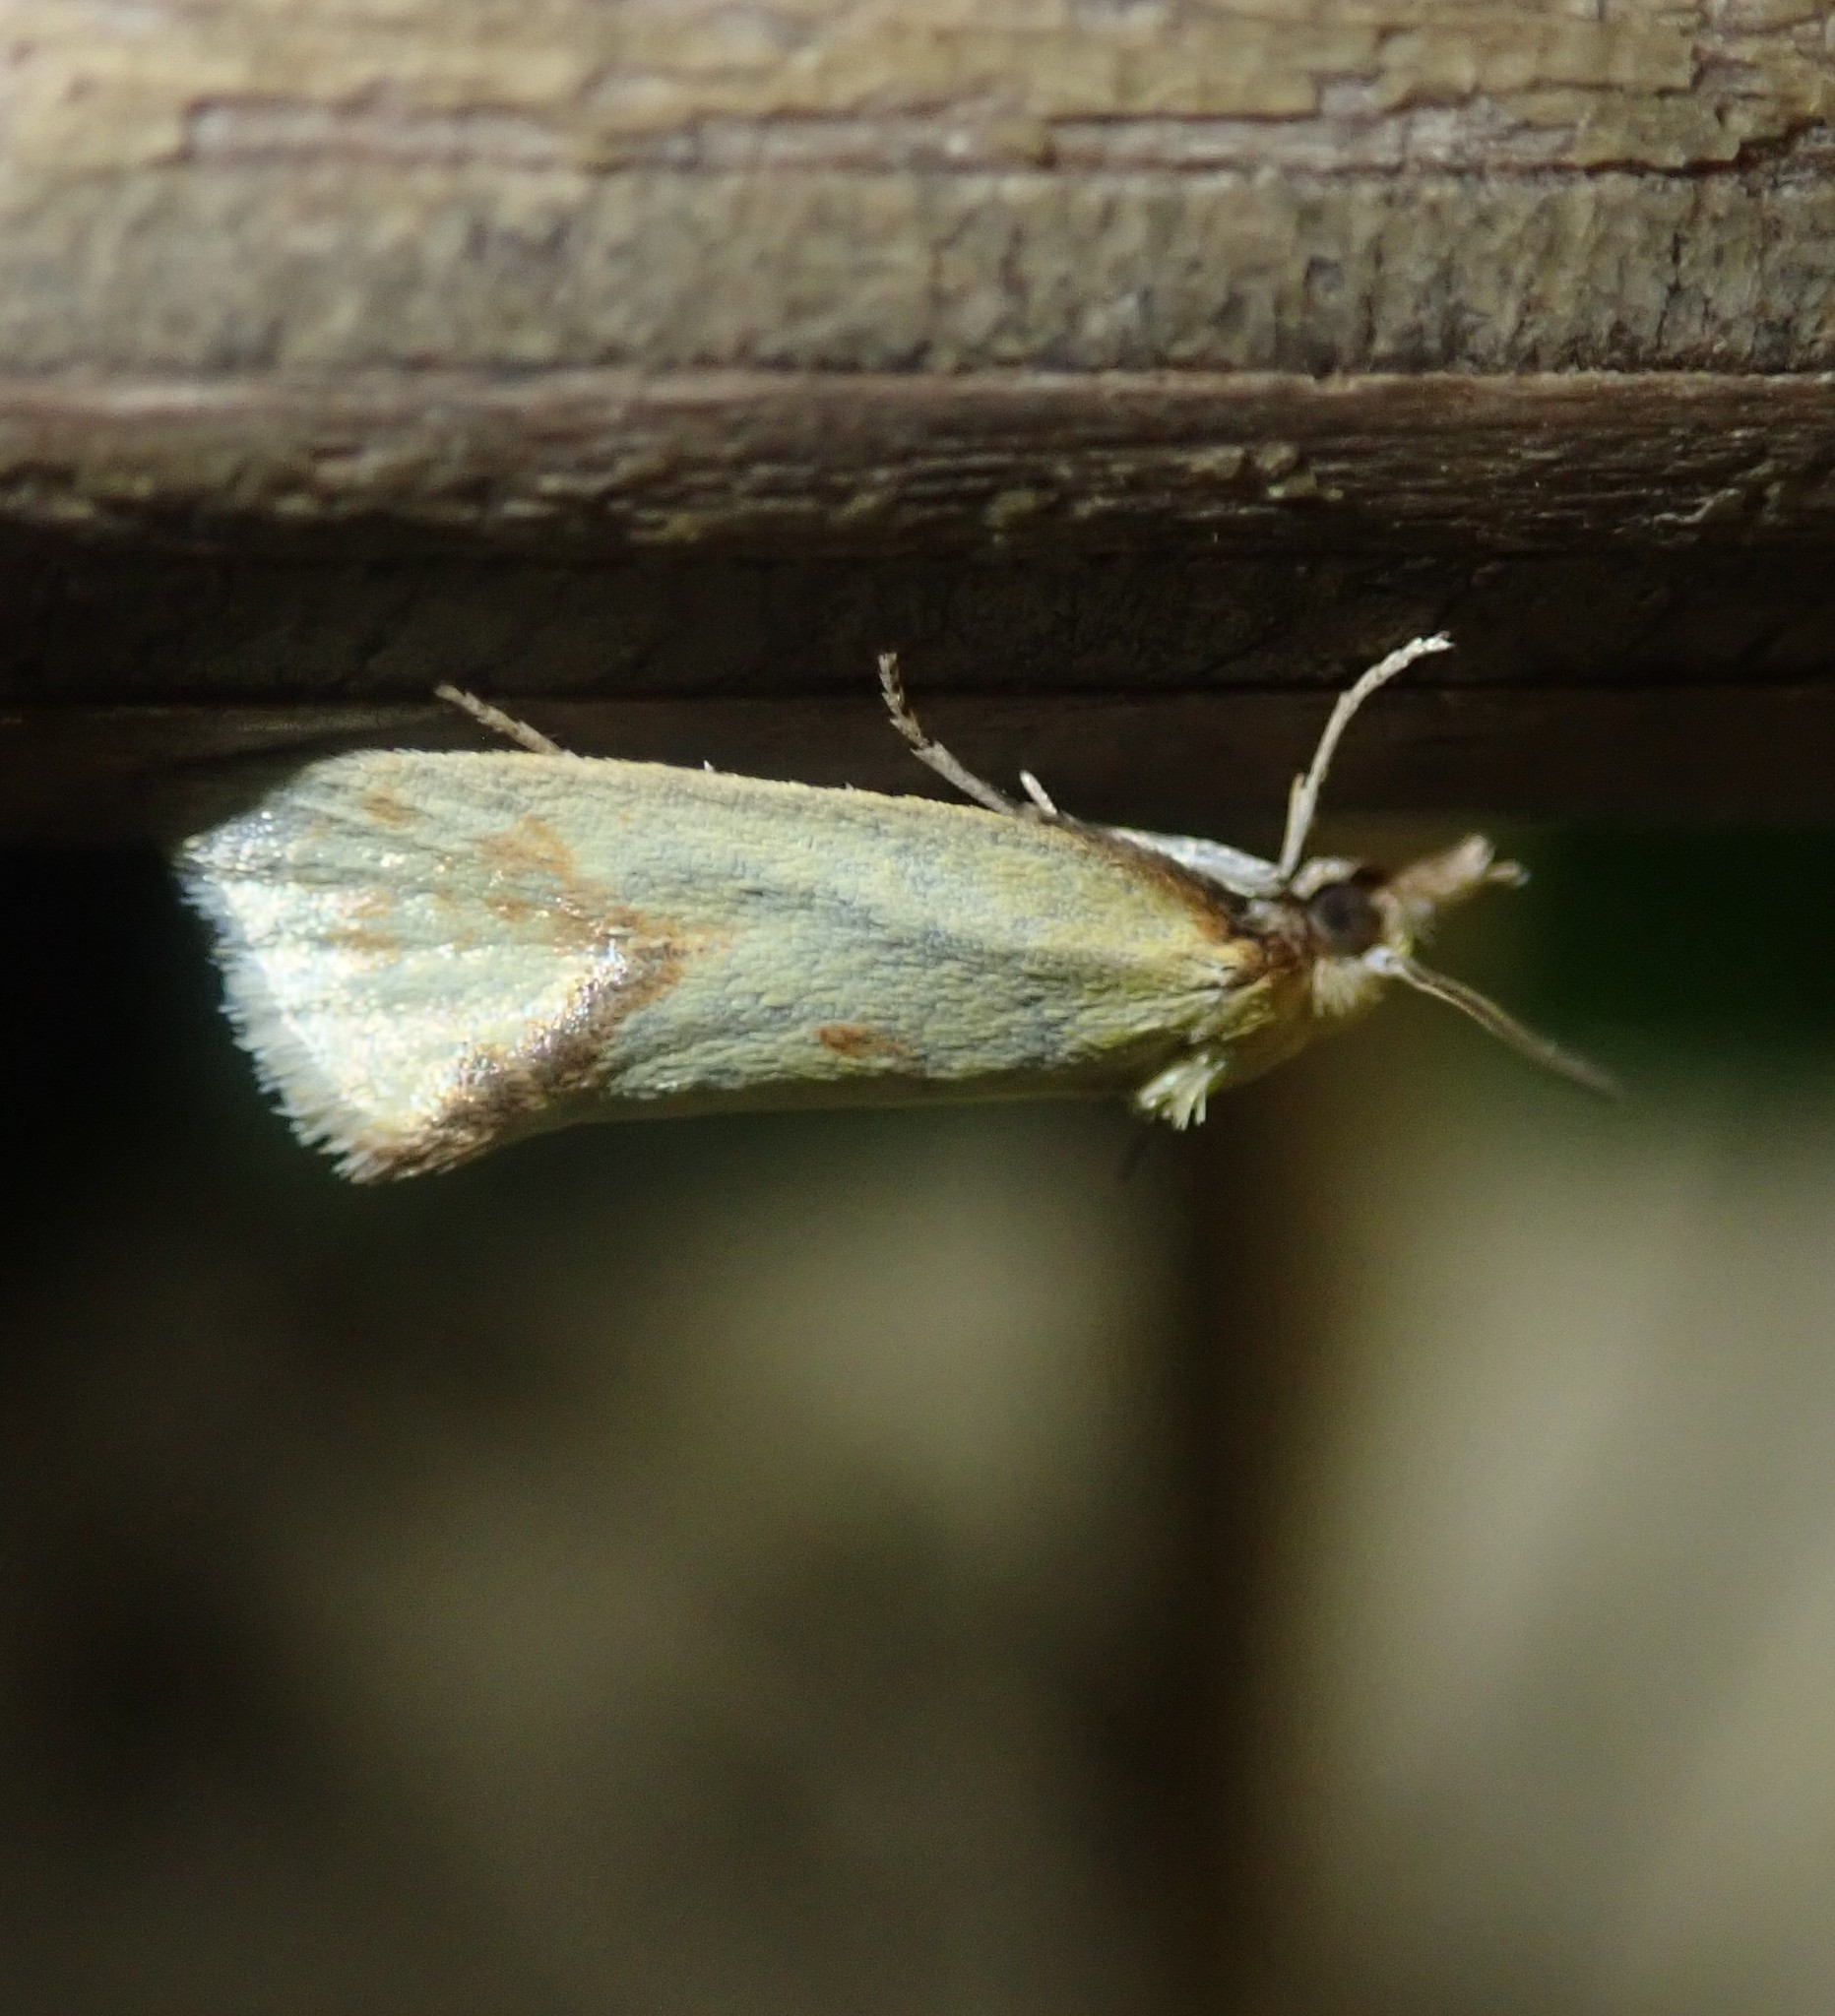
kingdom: Animalia
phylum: Arthropoda
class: Insecta
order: Lepidoptera
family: Tortricidae
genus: Agapeta
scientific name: Agapeta hamana
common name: Common yellow conch
